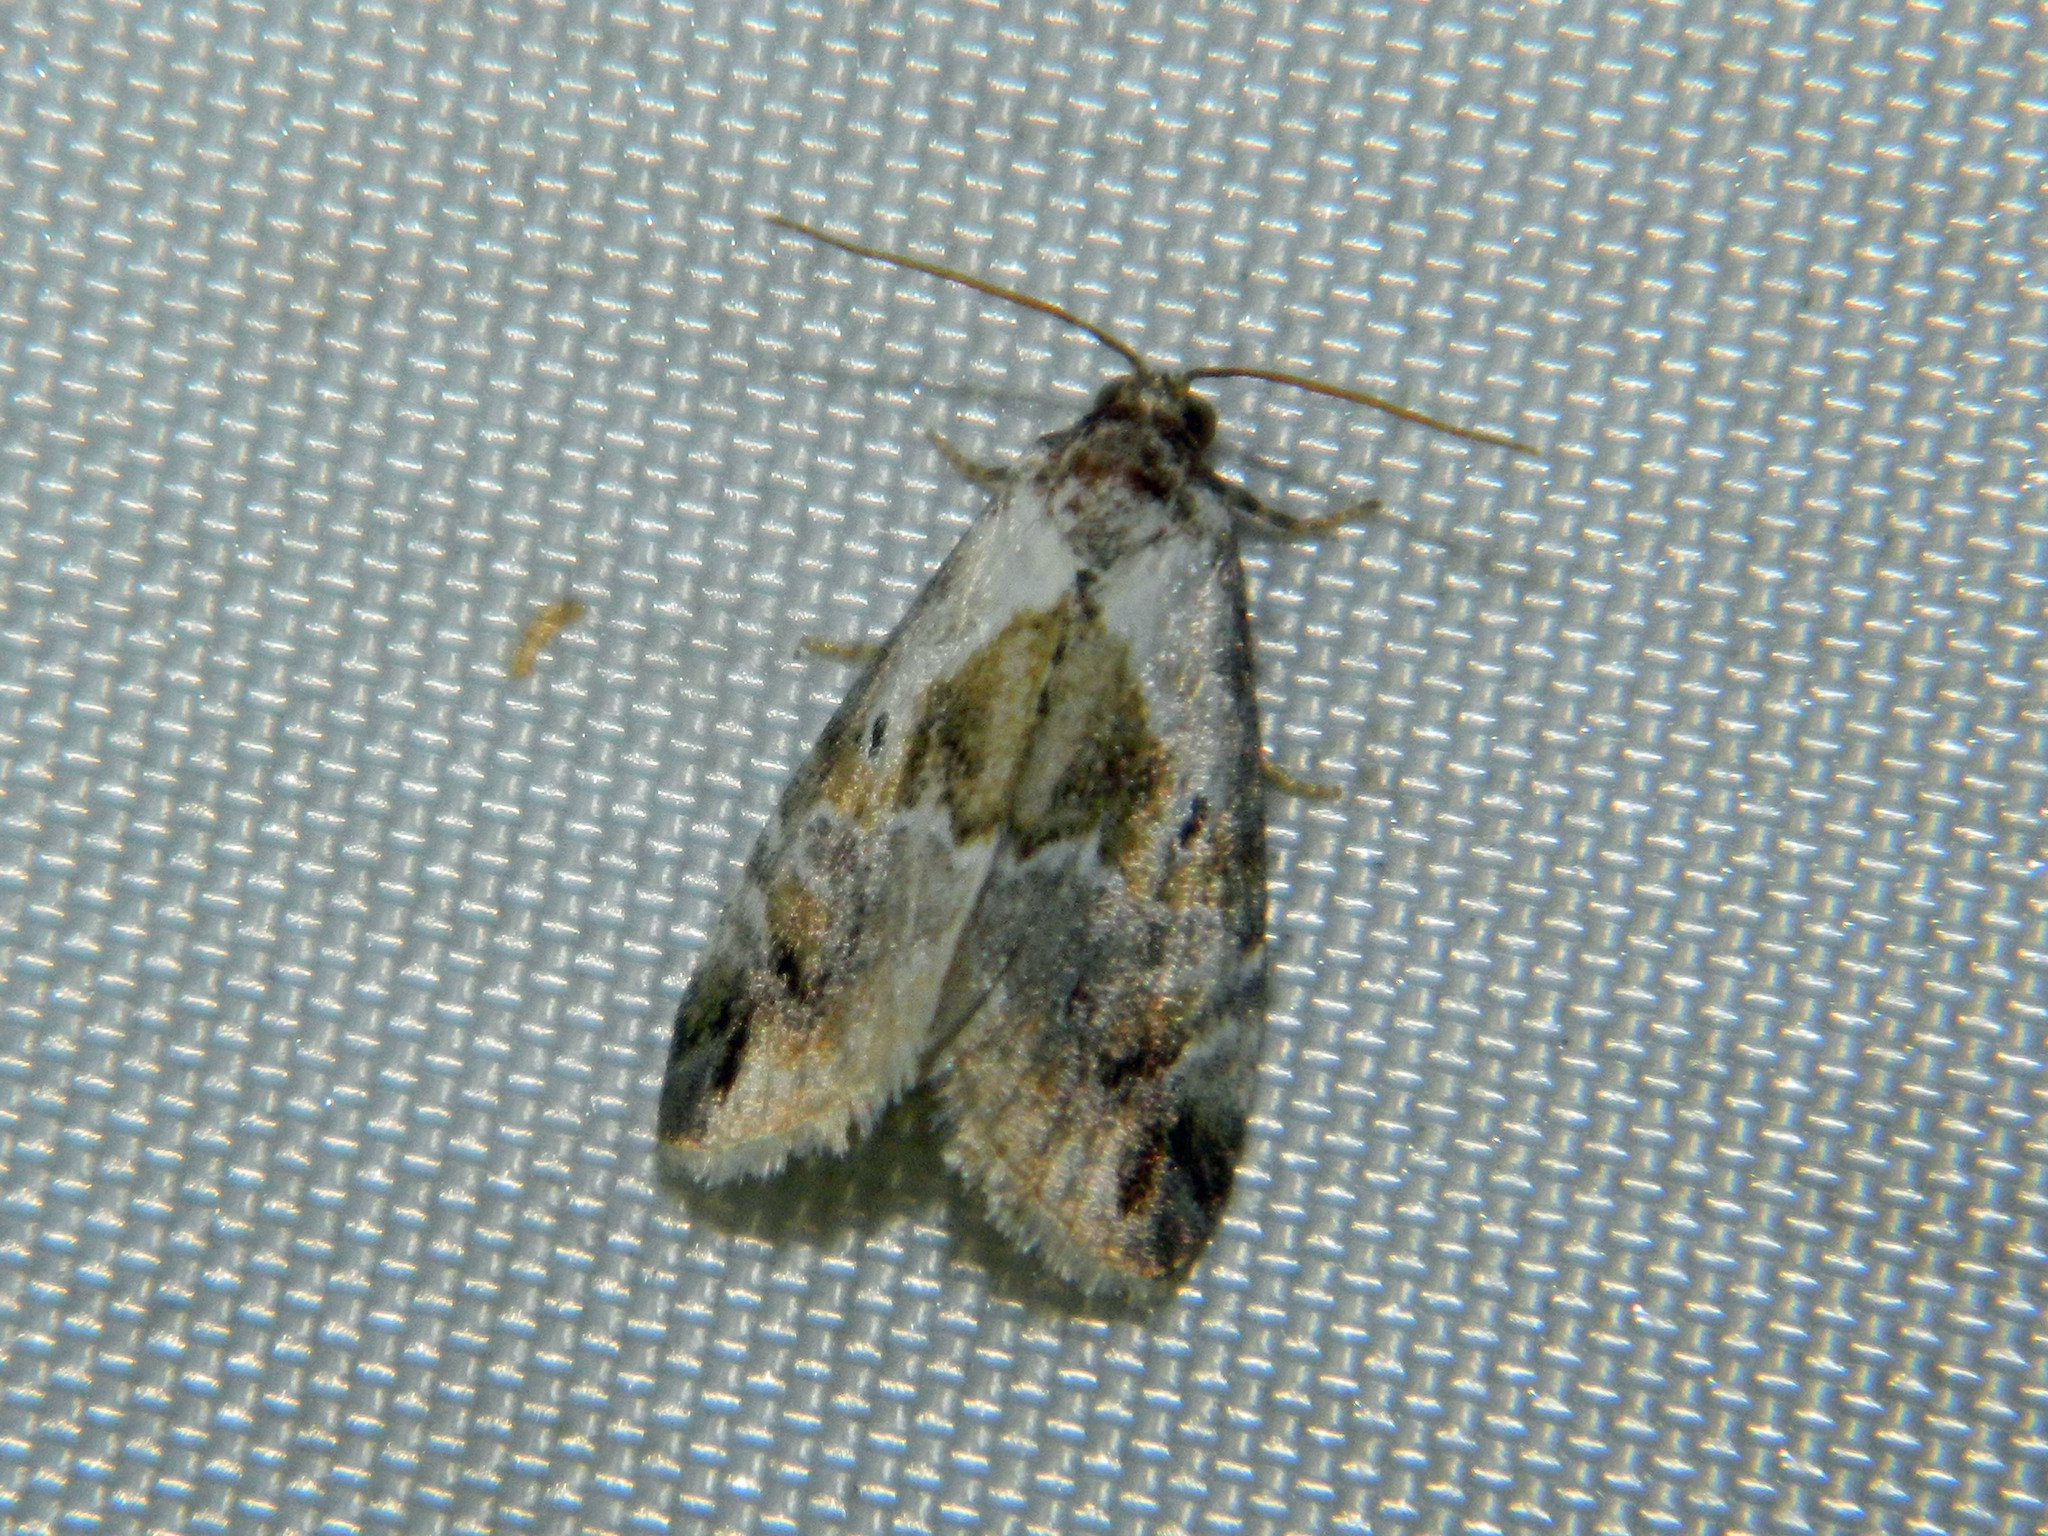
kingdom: Animalia
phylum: Arthropoda
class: Insecta
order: Lepidoptera
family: Noctuidae
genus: Maliattha
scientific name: Maliattha synochitis
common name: Black-dotted glyph
